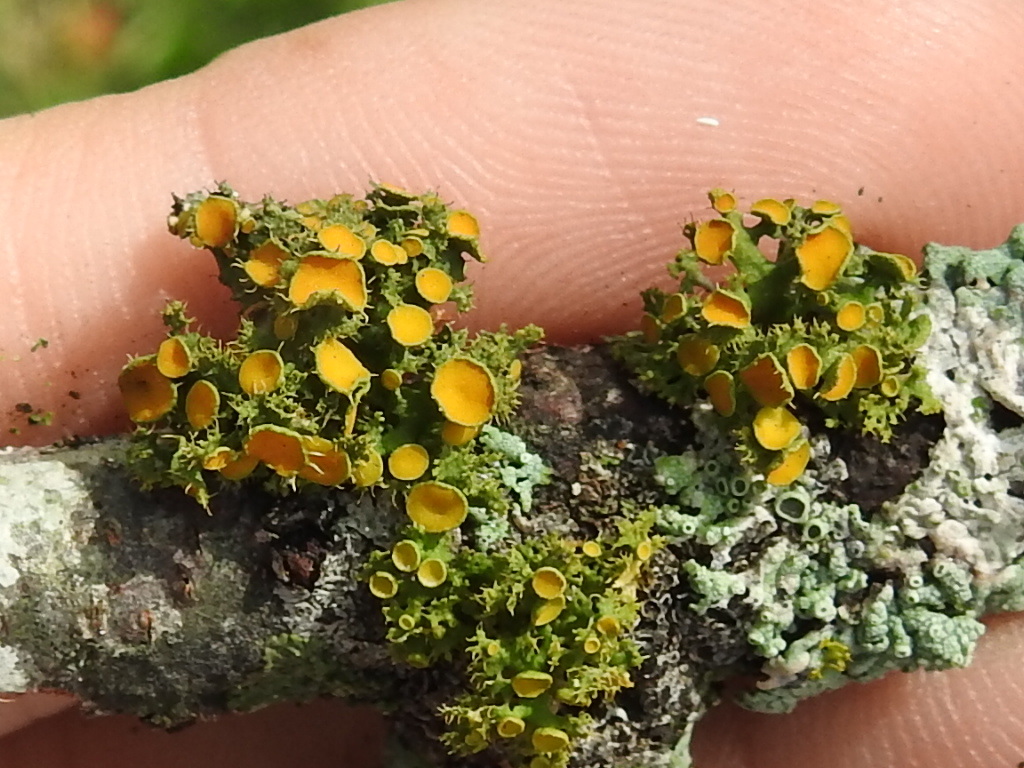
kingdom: Fungi
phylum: Ascomycota
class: Lecanoromycetes
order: Teloschistales
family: Teloschistaceae
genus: Niorma
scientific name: Niorma chrysophthalma
